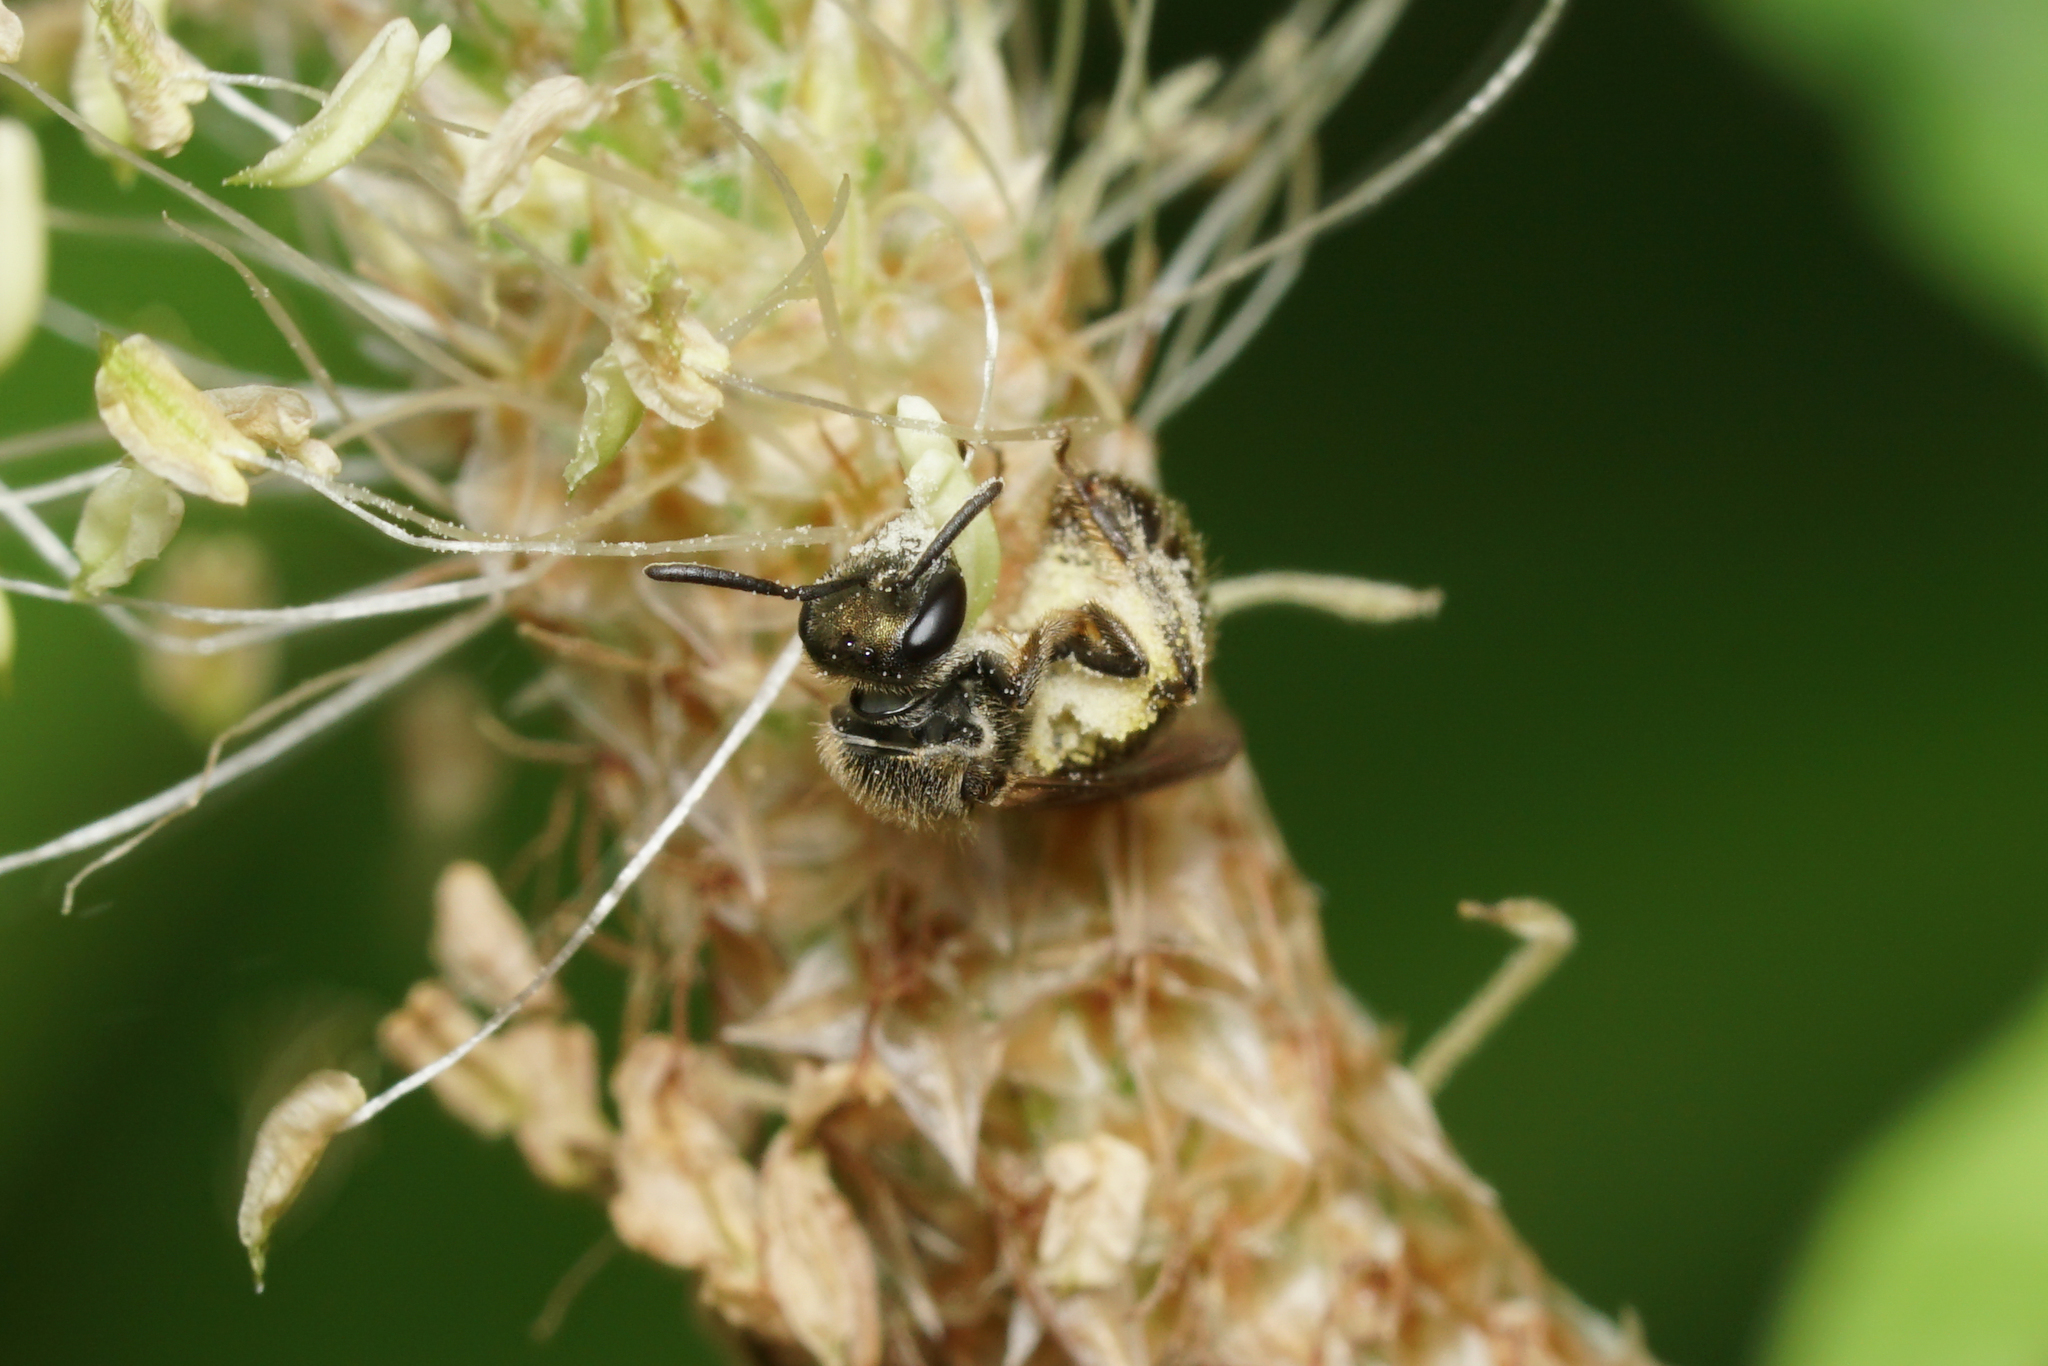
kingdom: Animalia
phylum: Arthropoda
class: Insecta
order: Hymenoptera
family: Halictidae
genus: Dialictus
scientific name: Dialictus
